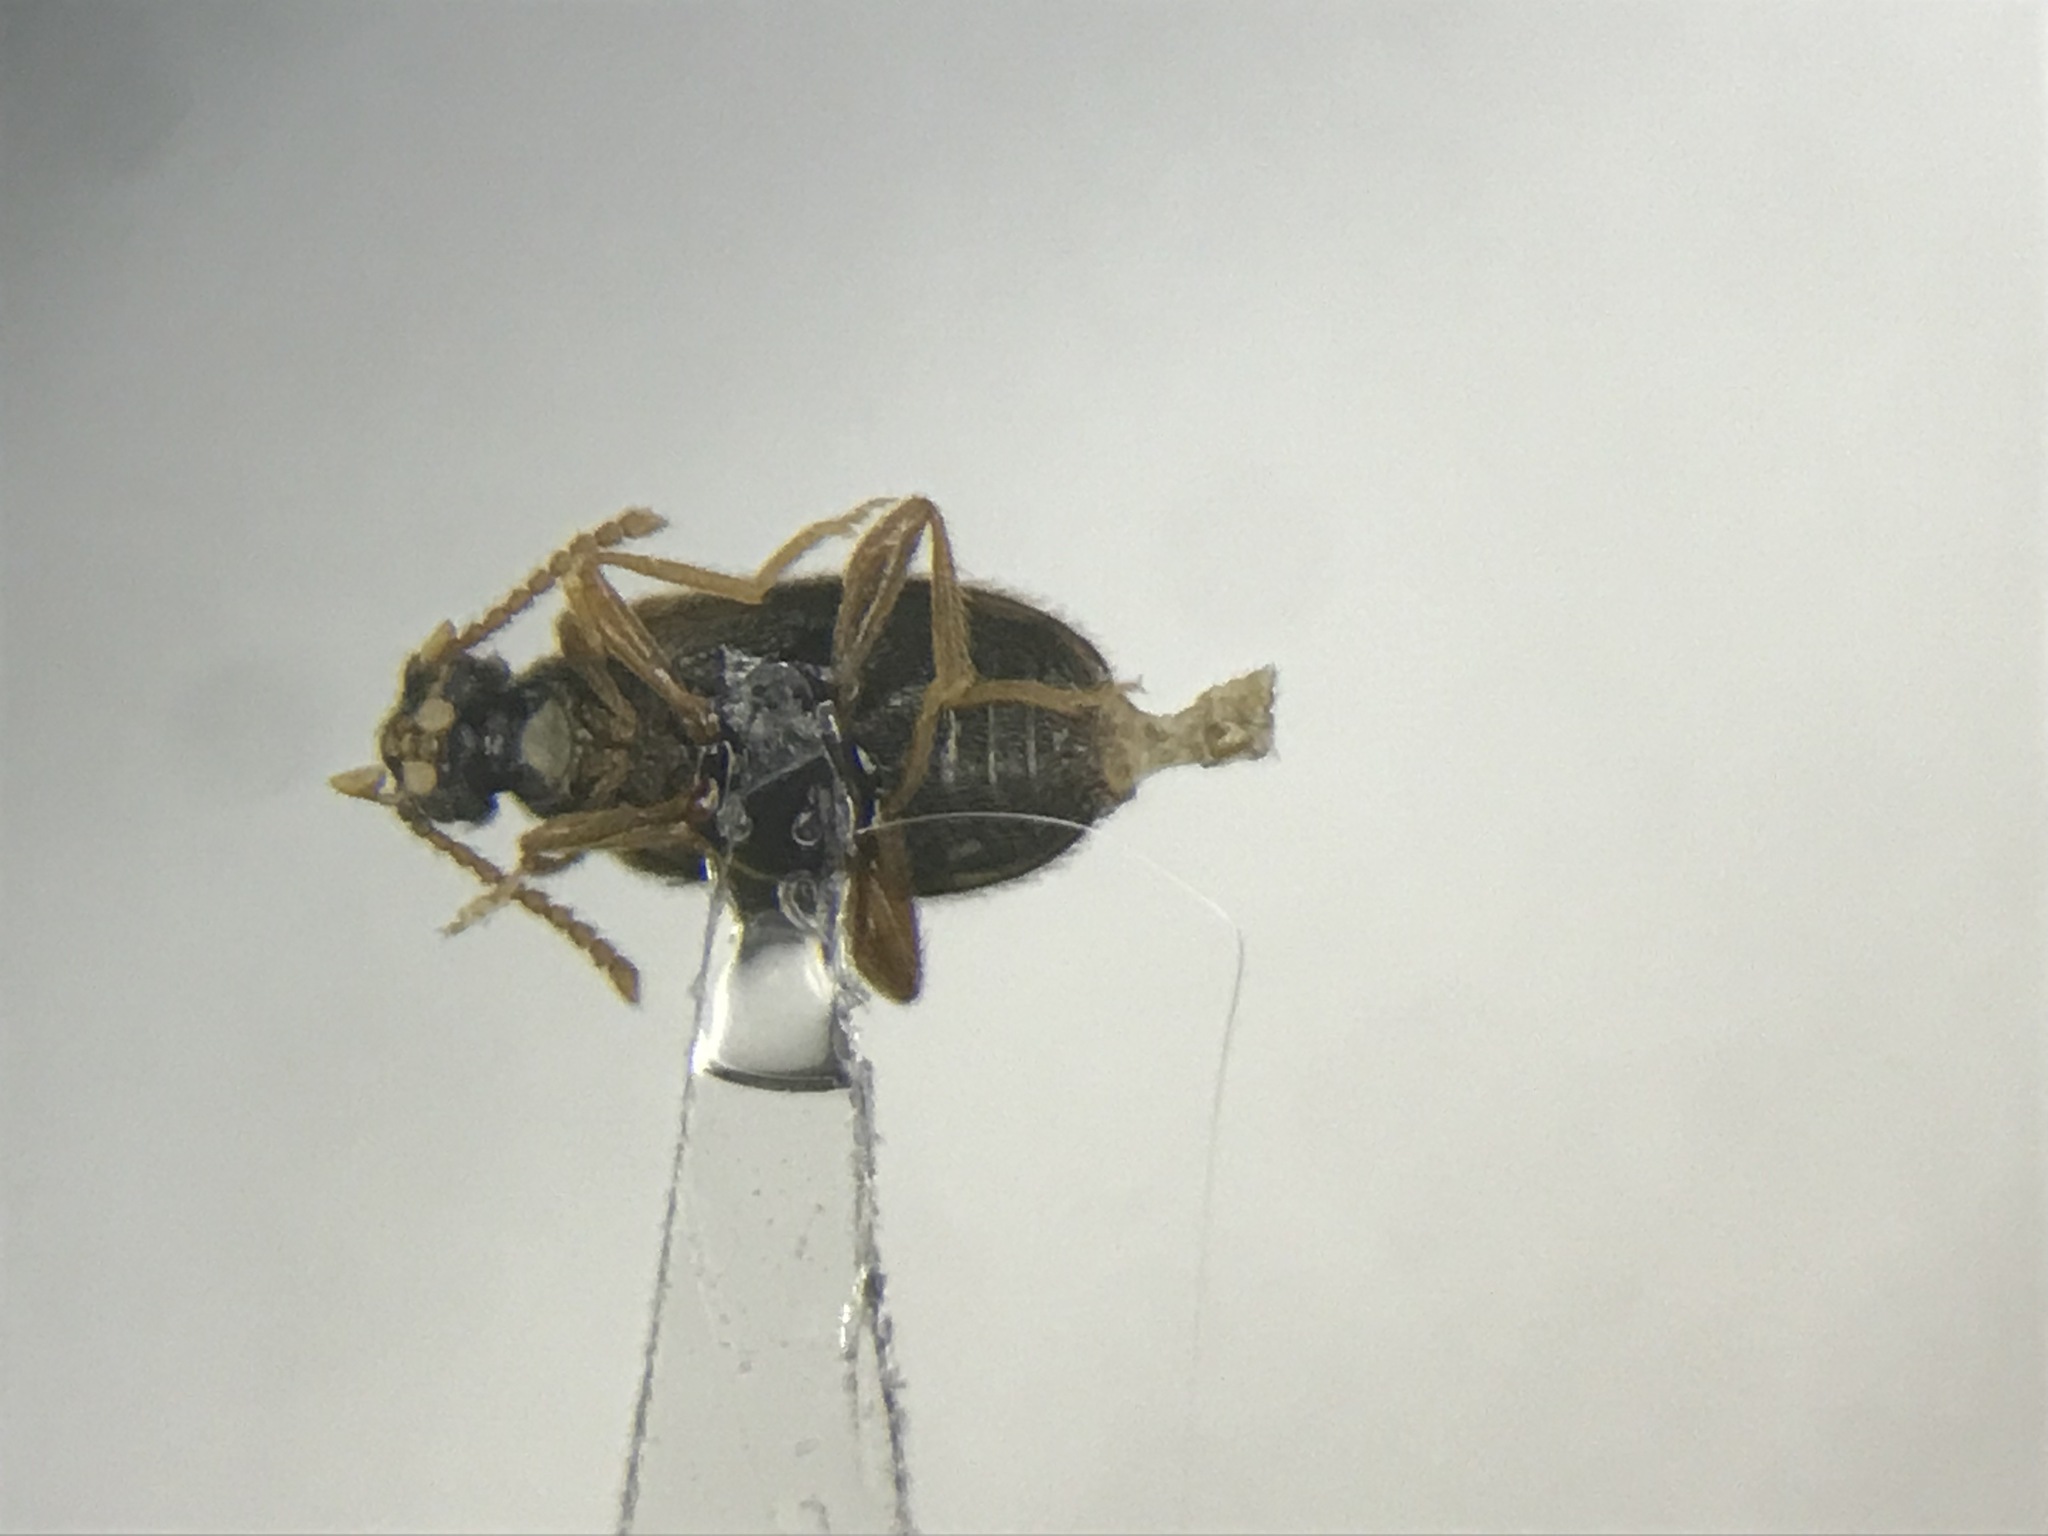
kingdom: Animalia
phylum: Arthropoda
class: Insecta
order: Coleoptera
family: Aderidae
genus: Zonantes
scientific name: Zonantes fasciatus
